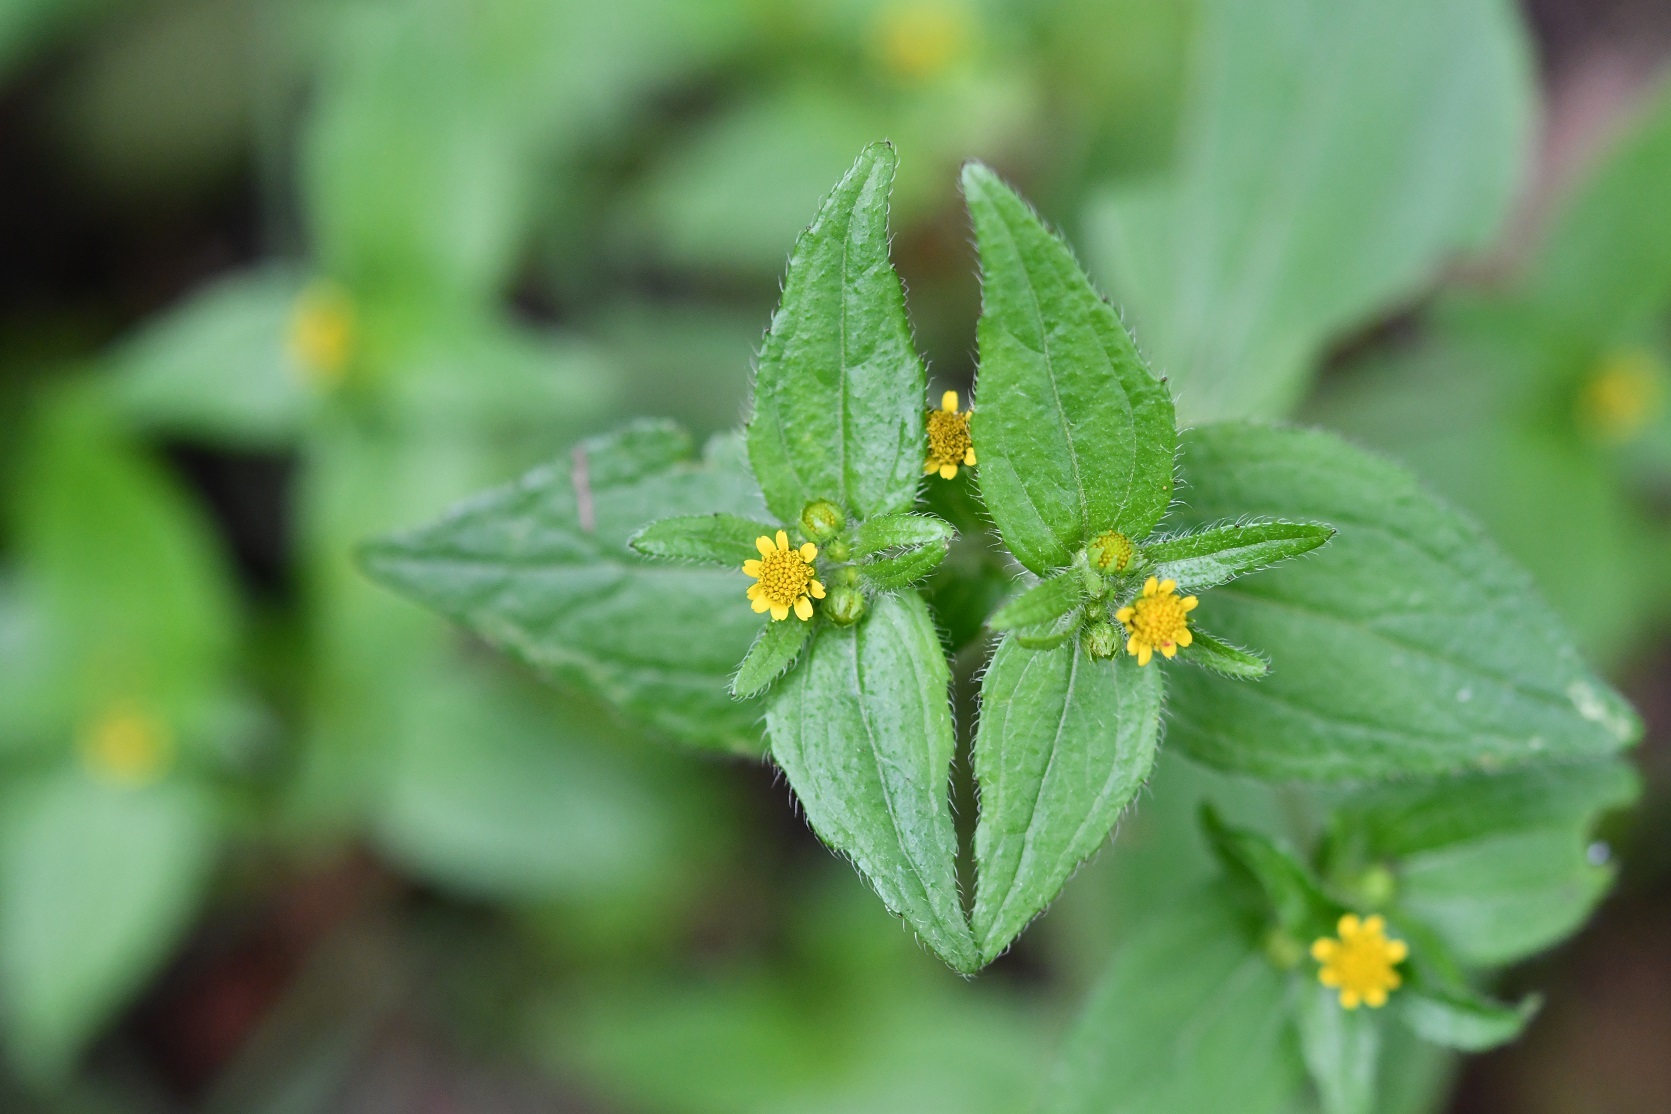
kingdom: Plantae
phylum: Tracheophyta
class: Magnoliopsida
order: Asterales
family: Asteraceae
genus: Jaegeria
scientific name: Jaegeria hirta
